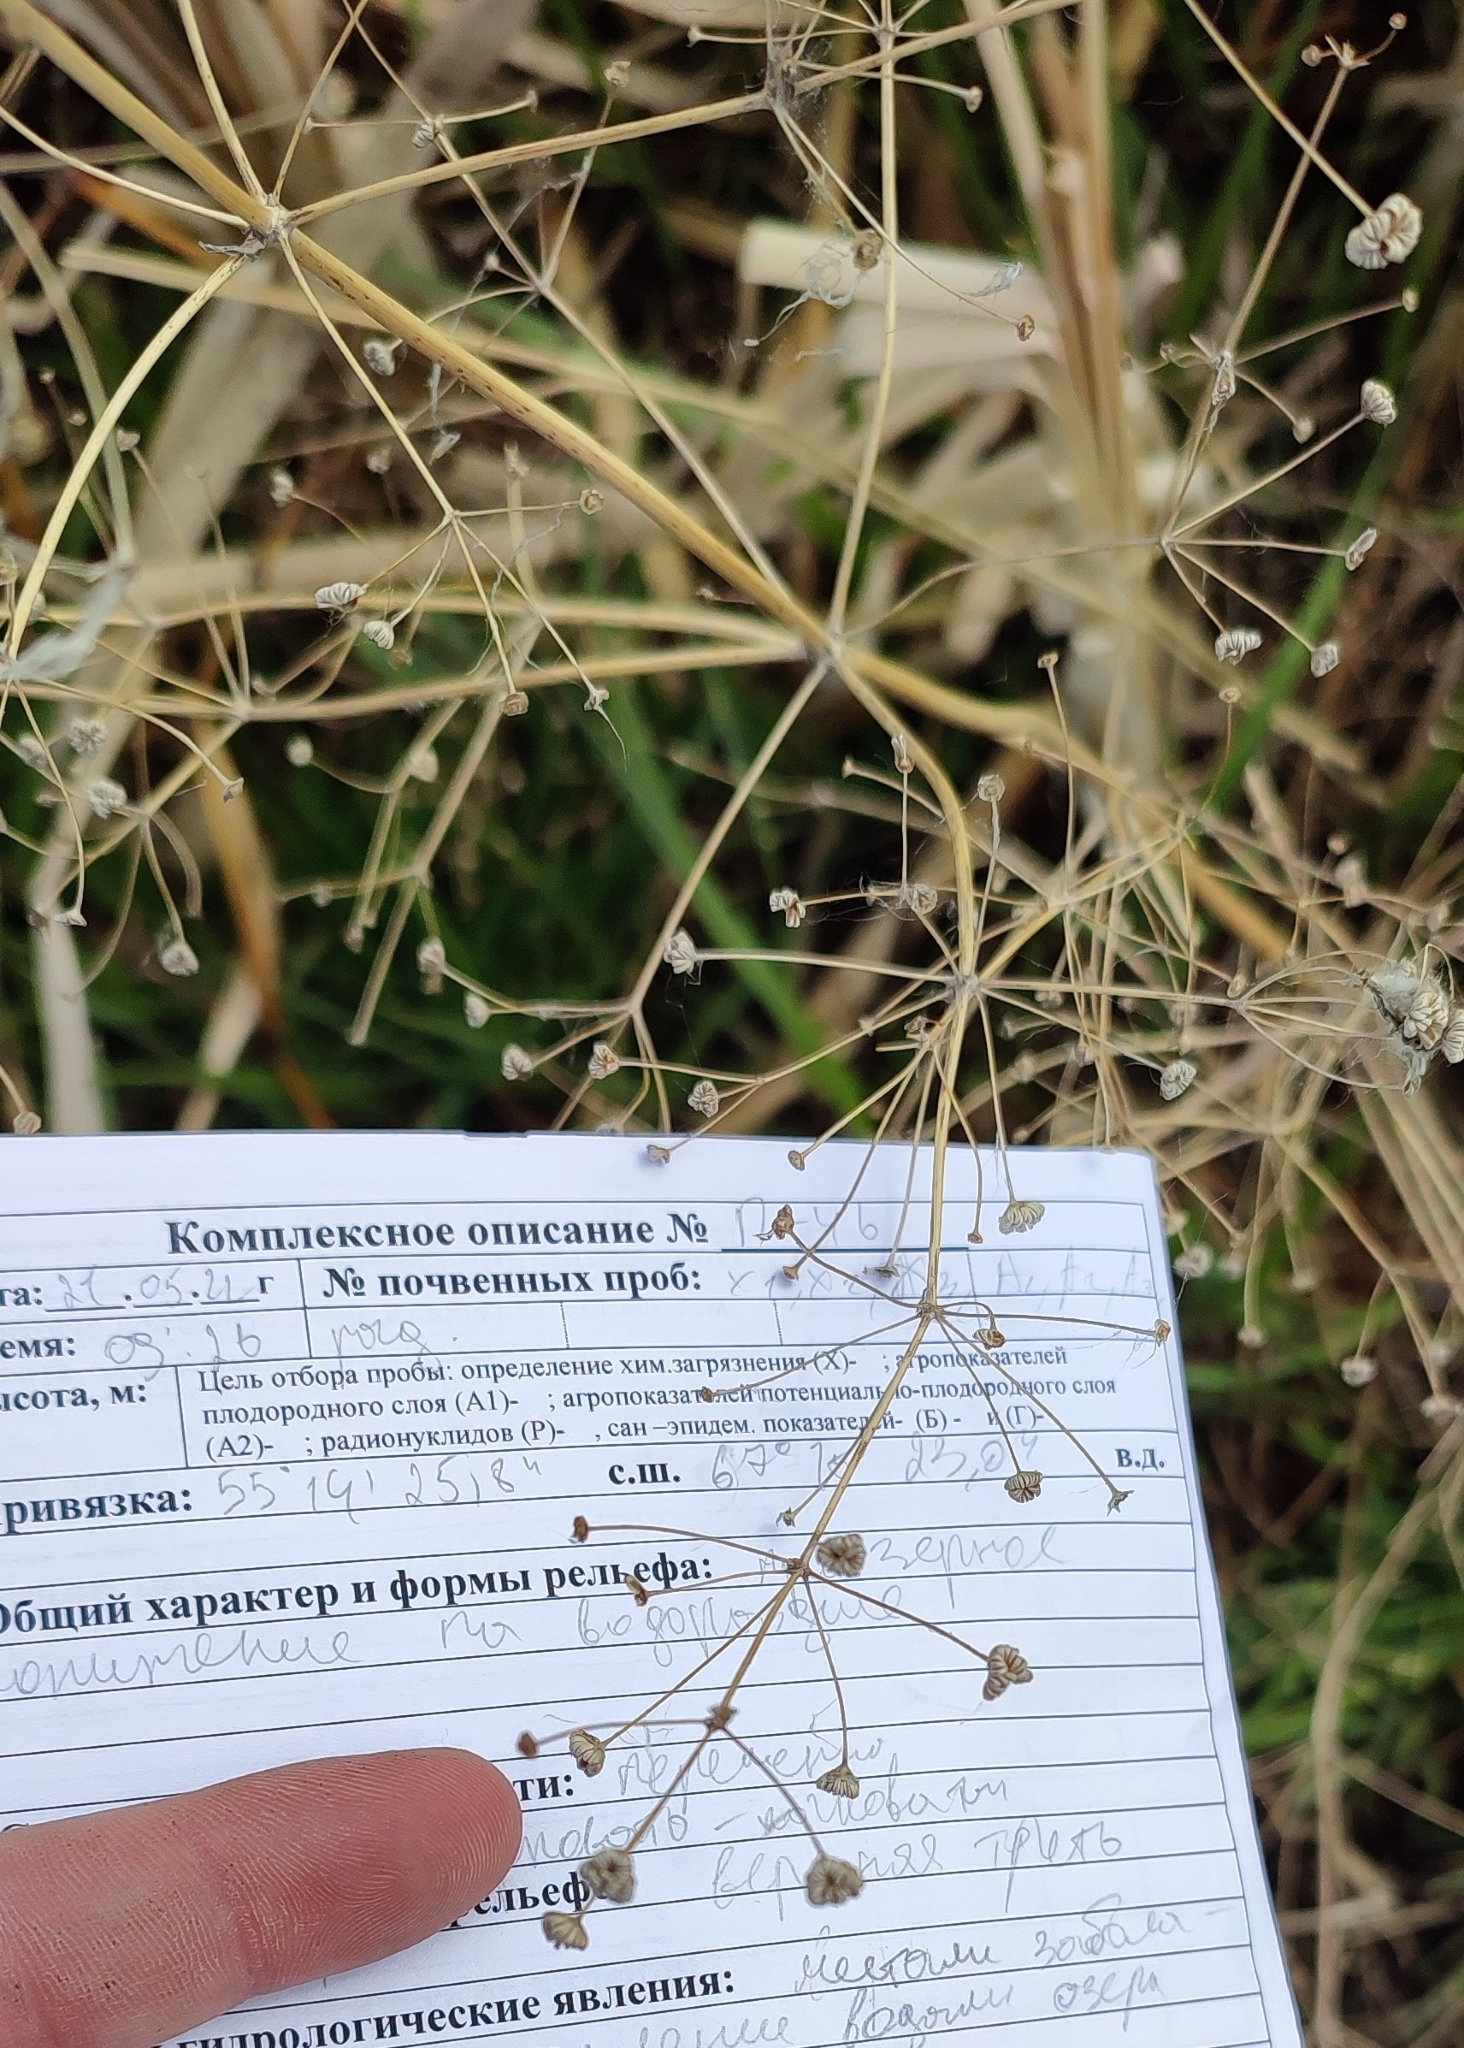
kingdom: Plantae
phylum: Tracheophyta
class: Liliopsida
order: Alismatales
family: Alismataceae
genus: Alisma
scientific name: Alisma plantago-aquatica
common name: Water-plantain
